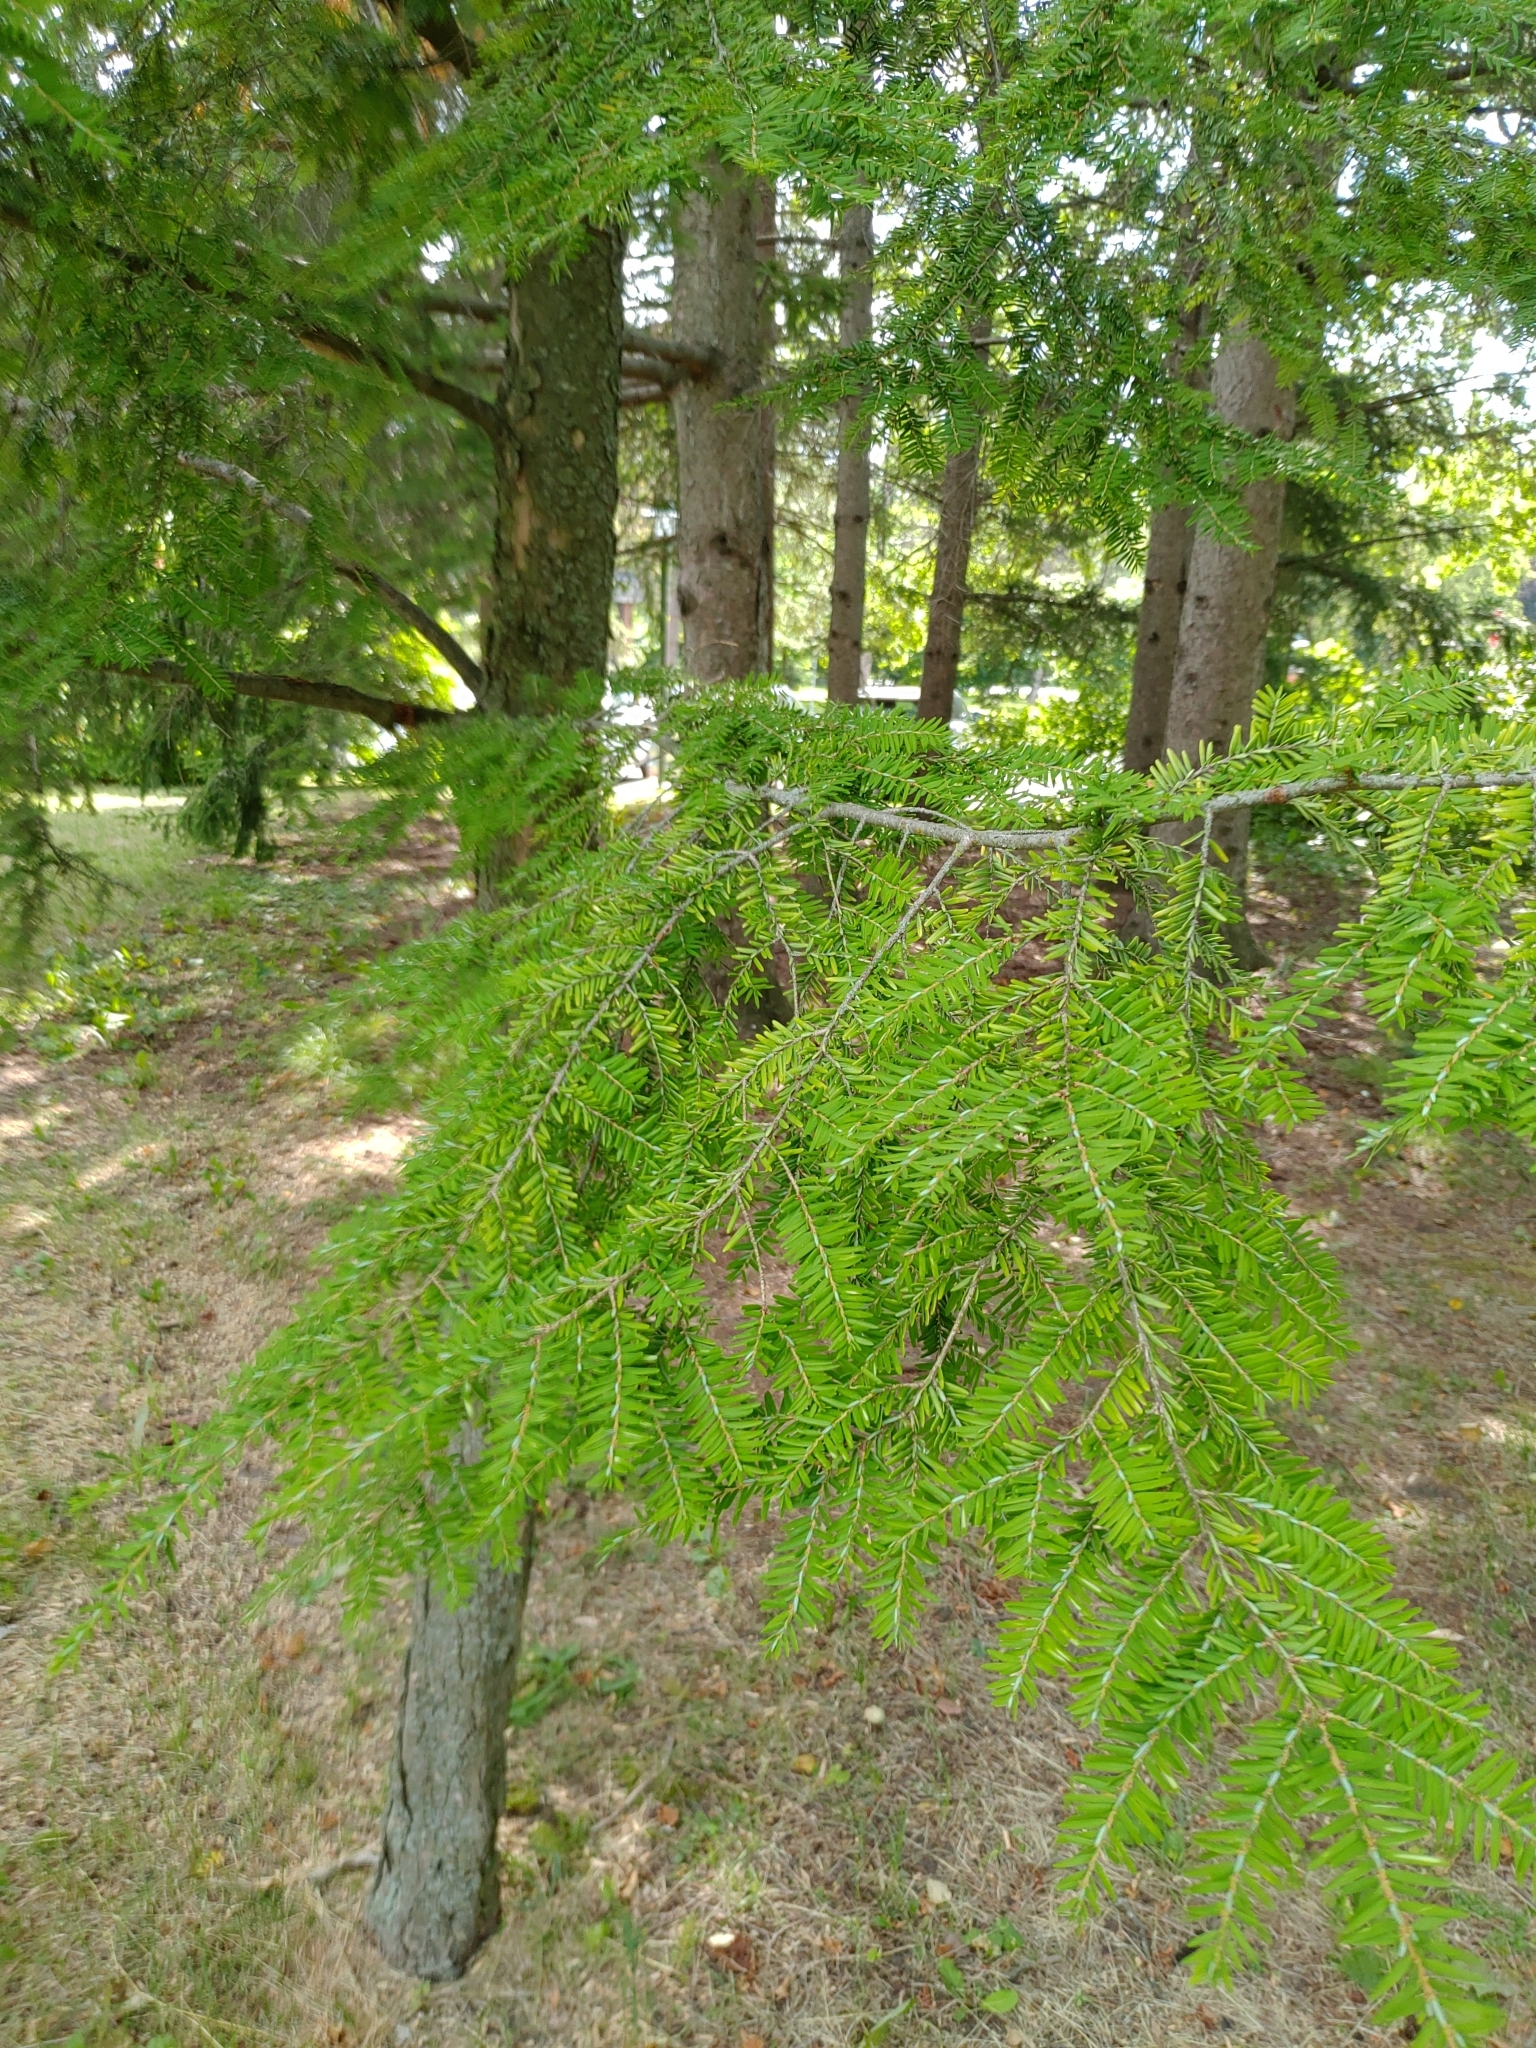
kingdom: Plantae
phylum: Tracheophyta
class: Pinopsida
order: Pinales
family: Pinaceae
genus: Tsuga
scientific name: Tsuga canadensis
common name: Eastern hemlock
